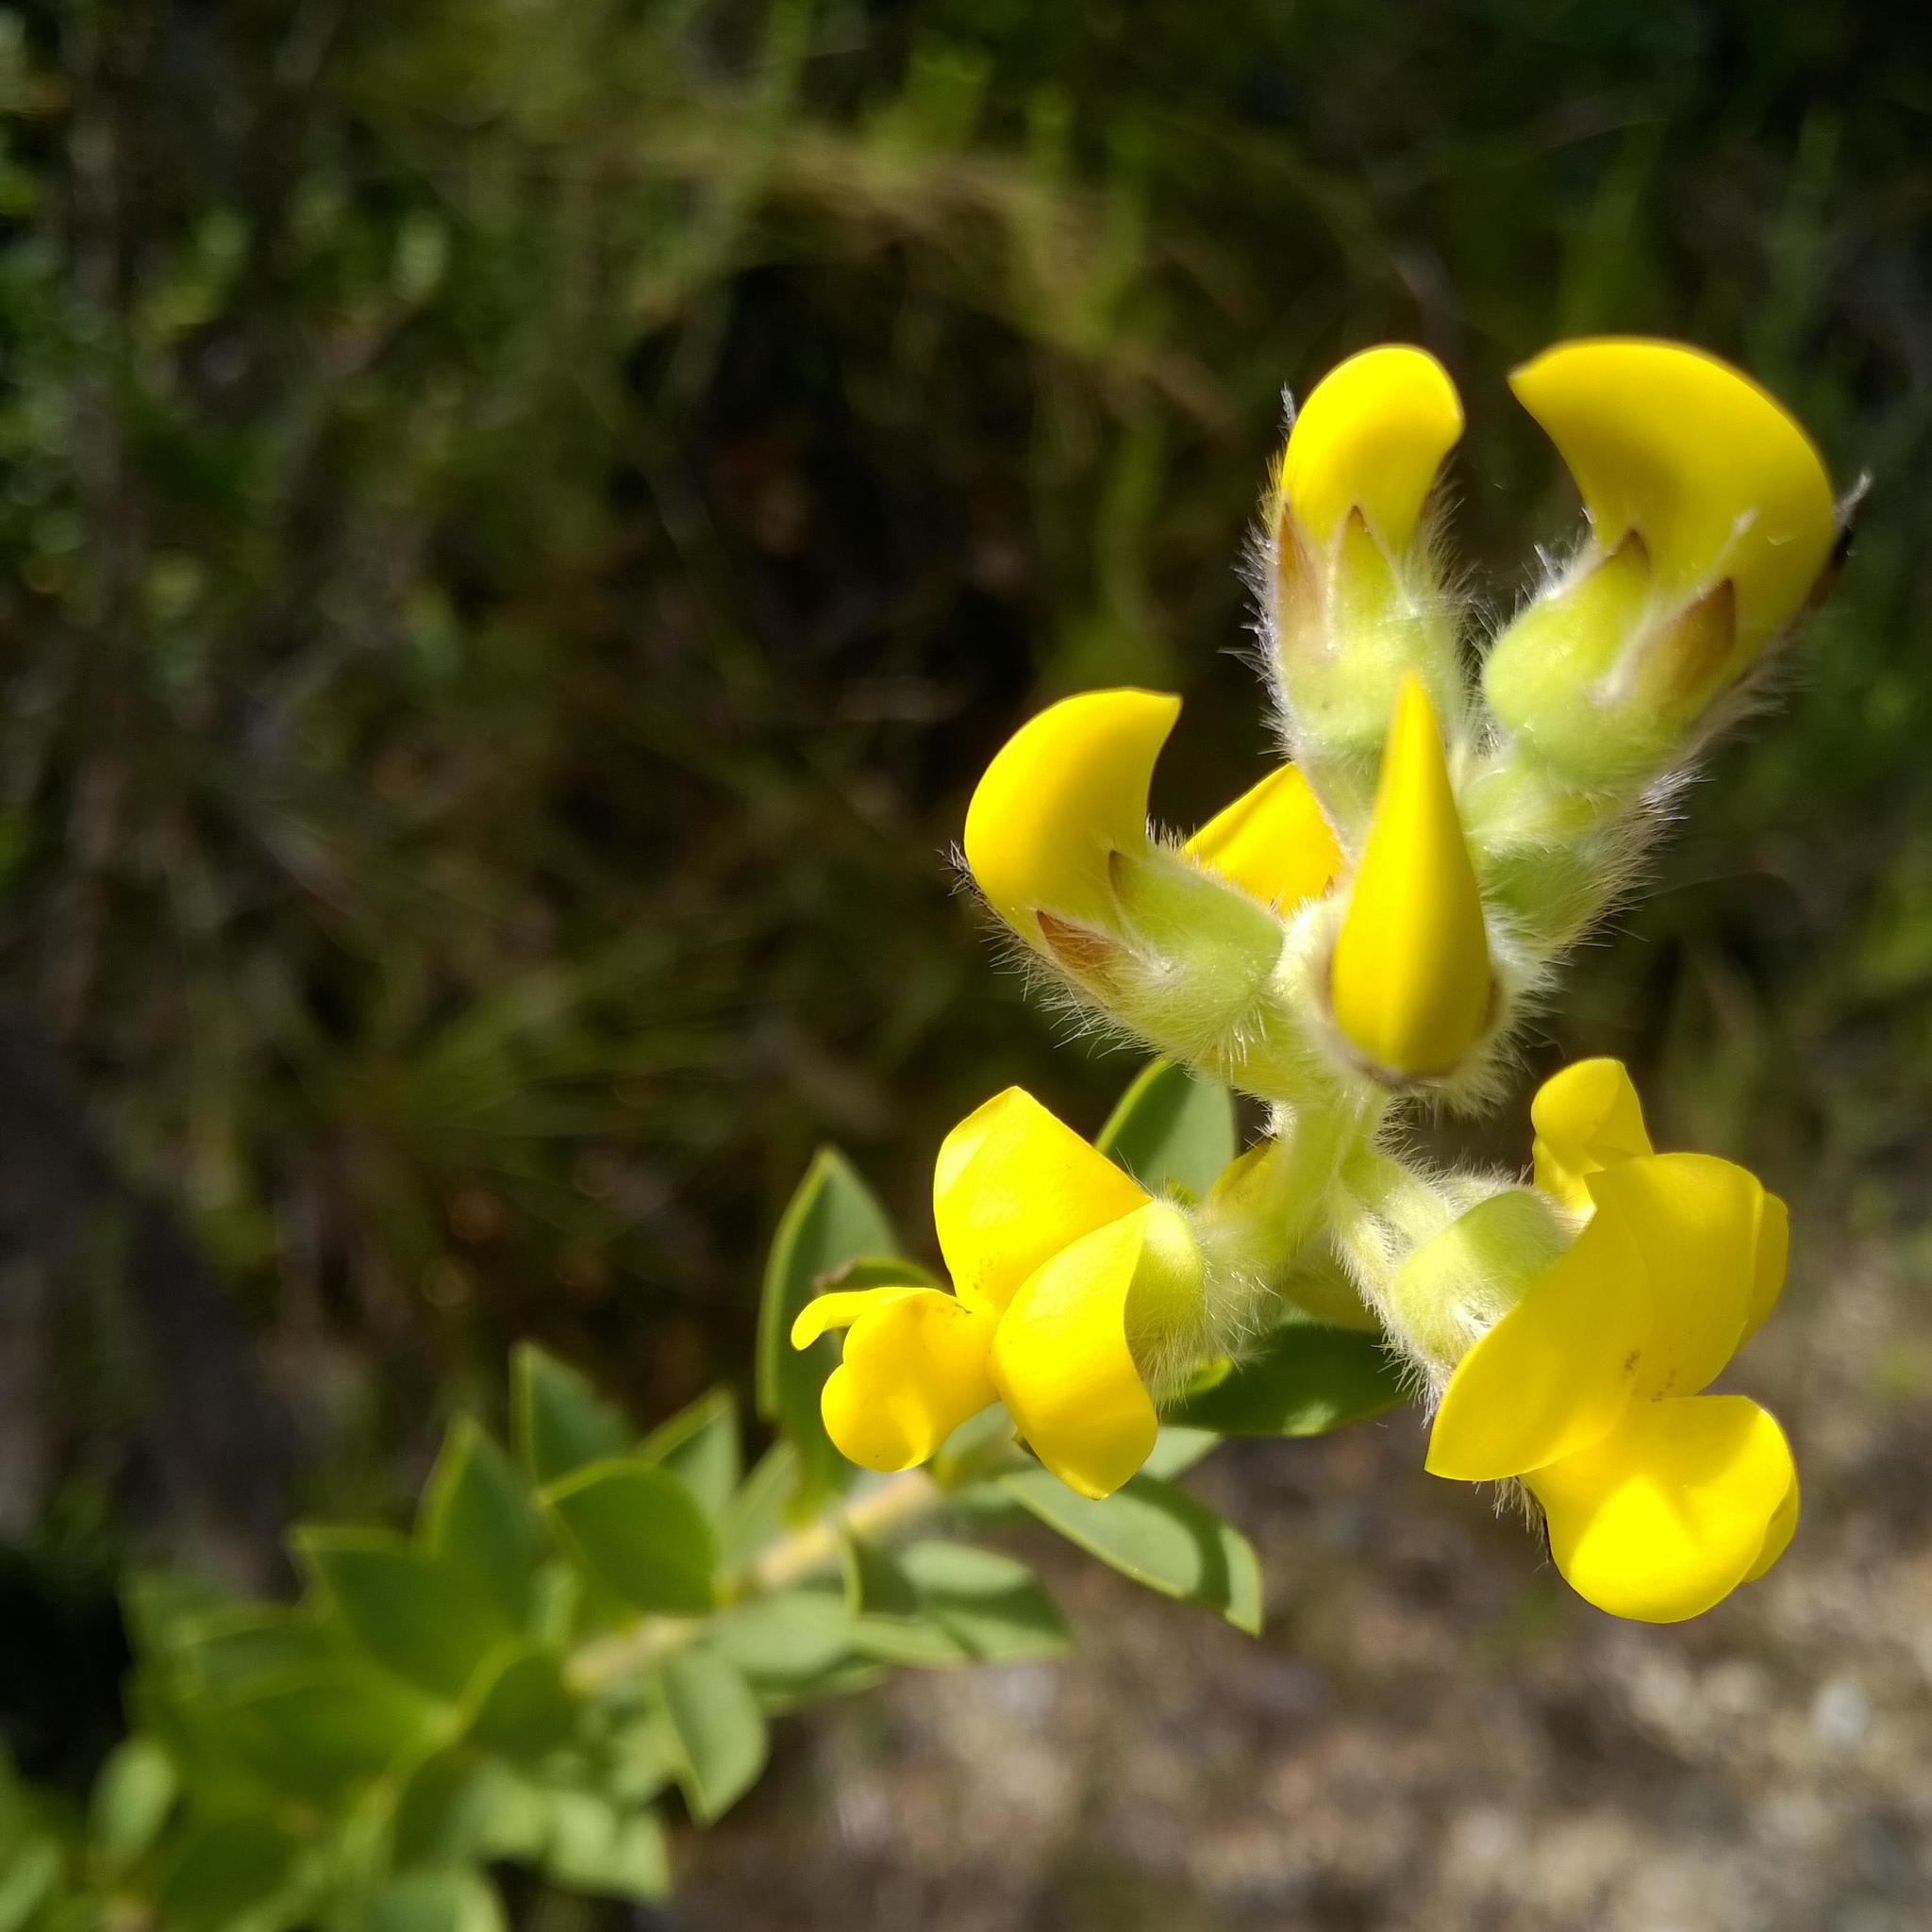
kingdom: Plantae
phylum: Tracheophyta
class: Magnoliopsida
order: Fabales
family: Fabaceae
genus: Liparia
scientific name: Liparia hirsuta
